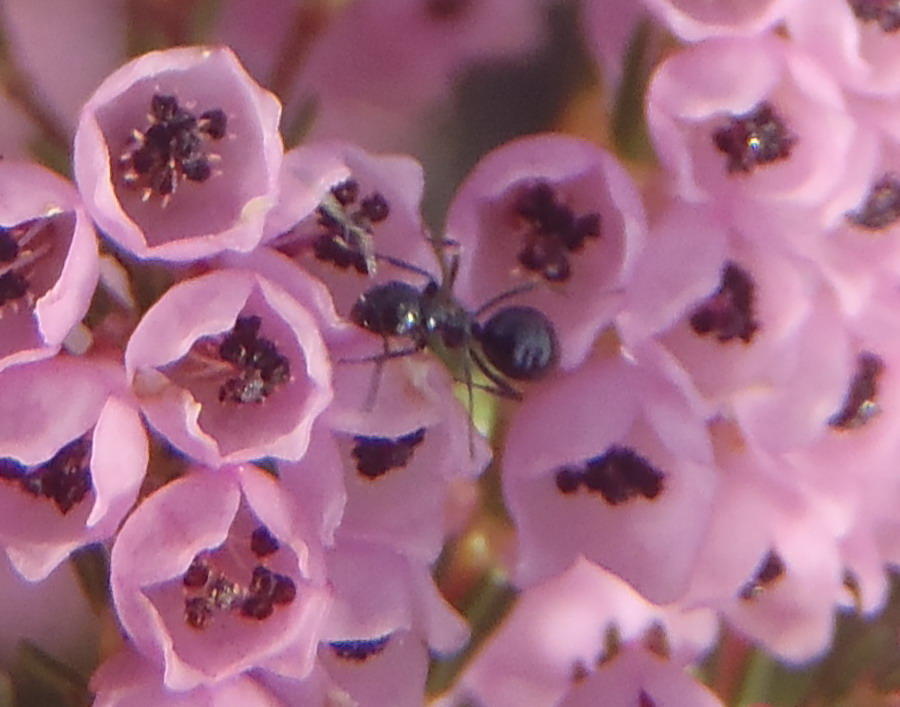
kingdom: Animalia
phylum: Arthropoda
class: Insecta
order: Hymenoptera
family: Formicidae
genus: Lepisiota
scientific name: Lepisiota capensis
